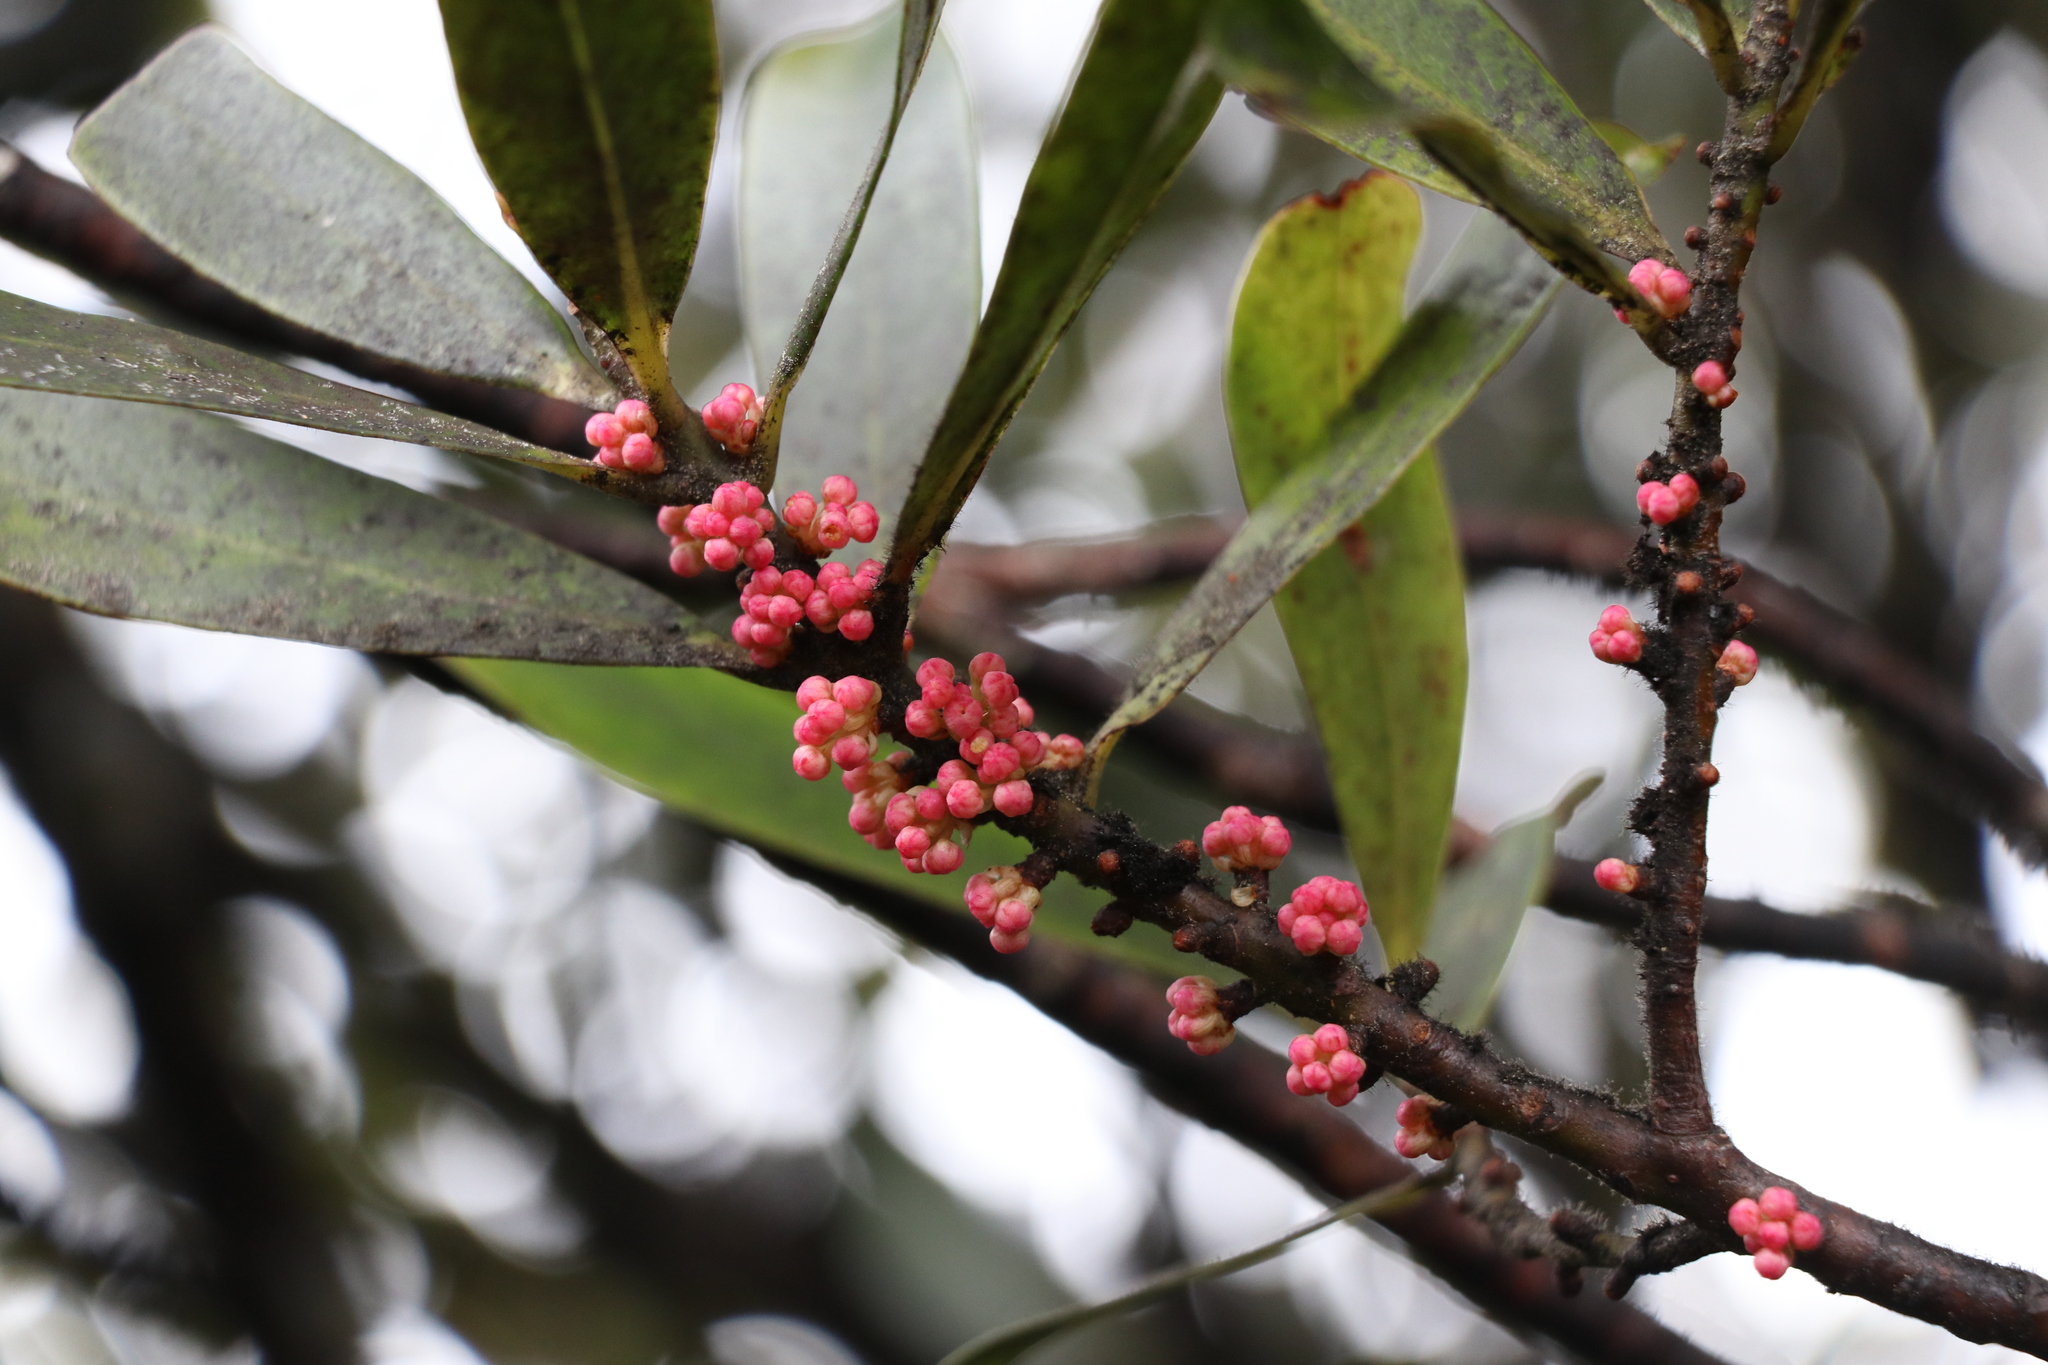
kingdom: Plantae
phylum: Tracheophyta
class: Magnoliopsida
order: Ericales
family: Primulaceae
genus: Myrsine
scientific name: Myrsine salicina
